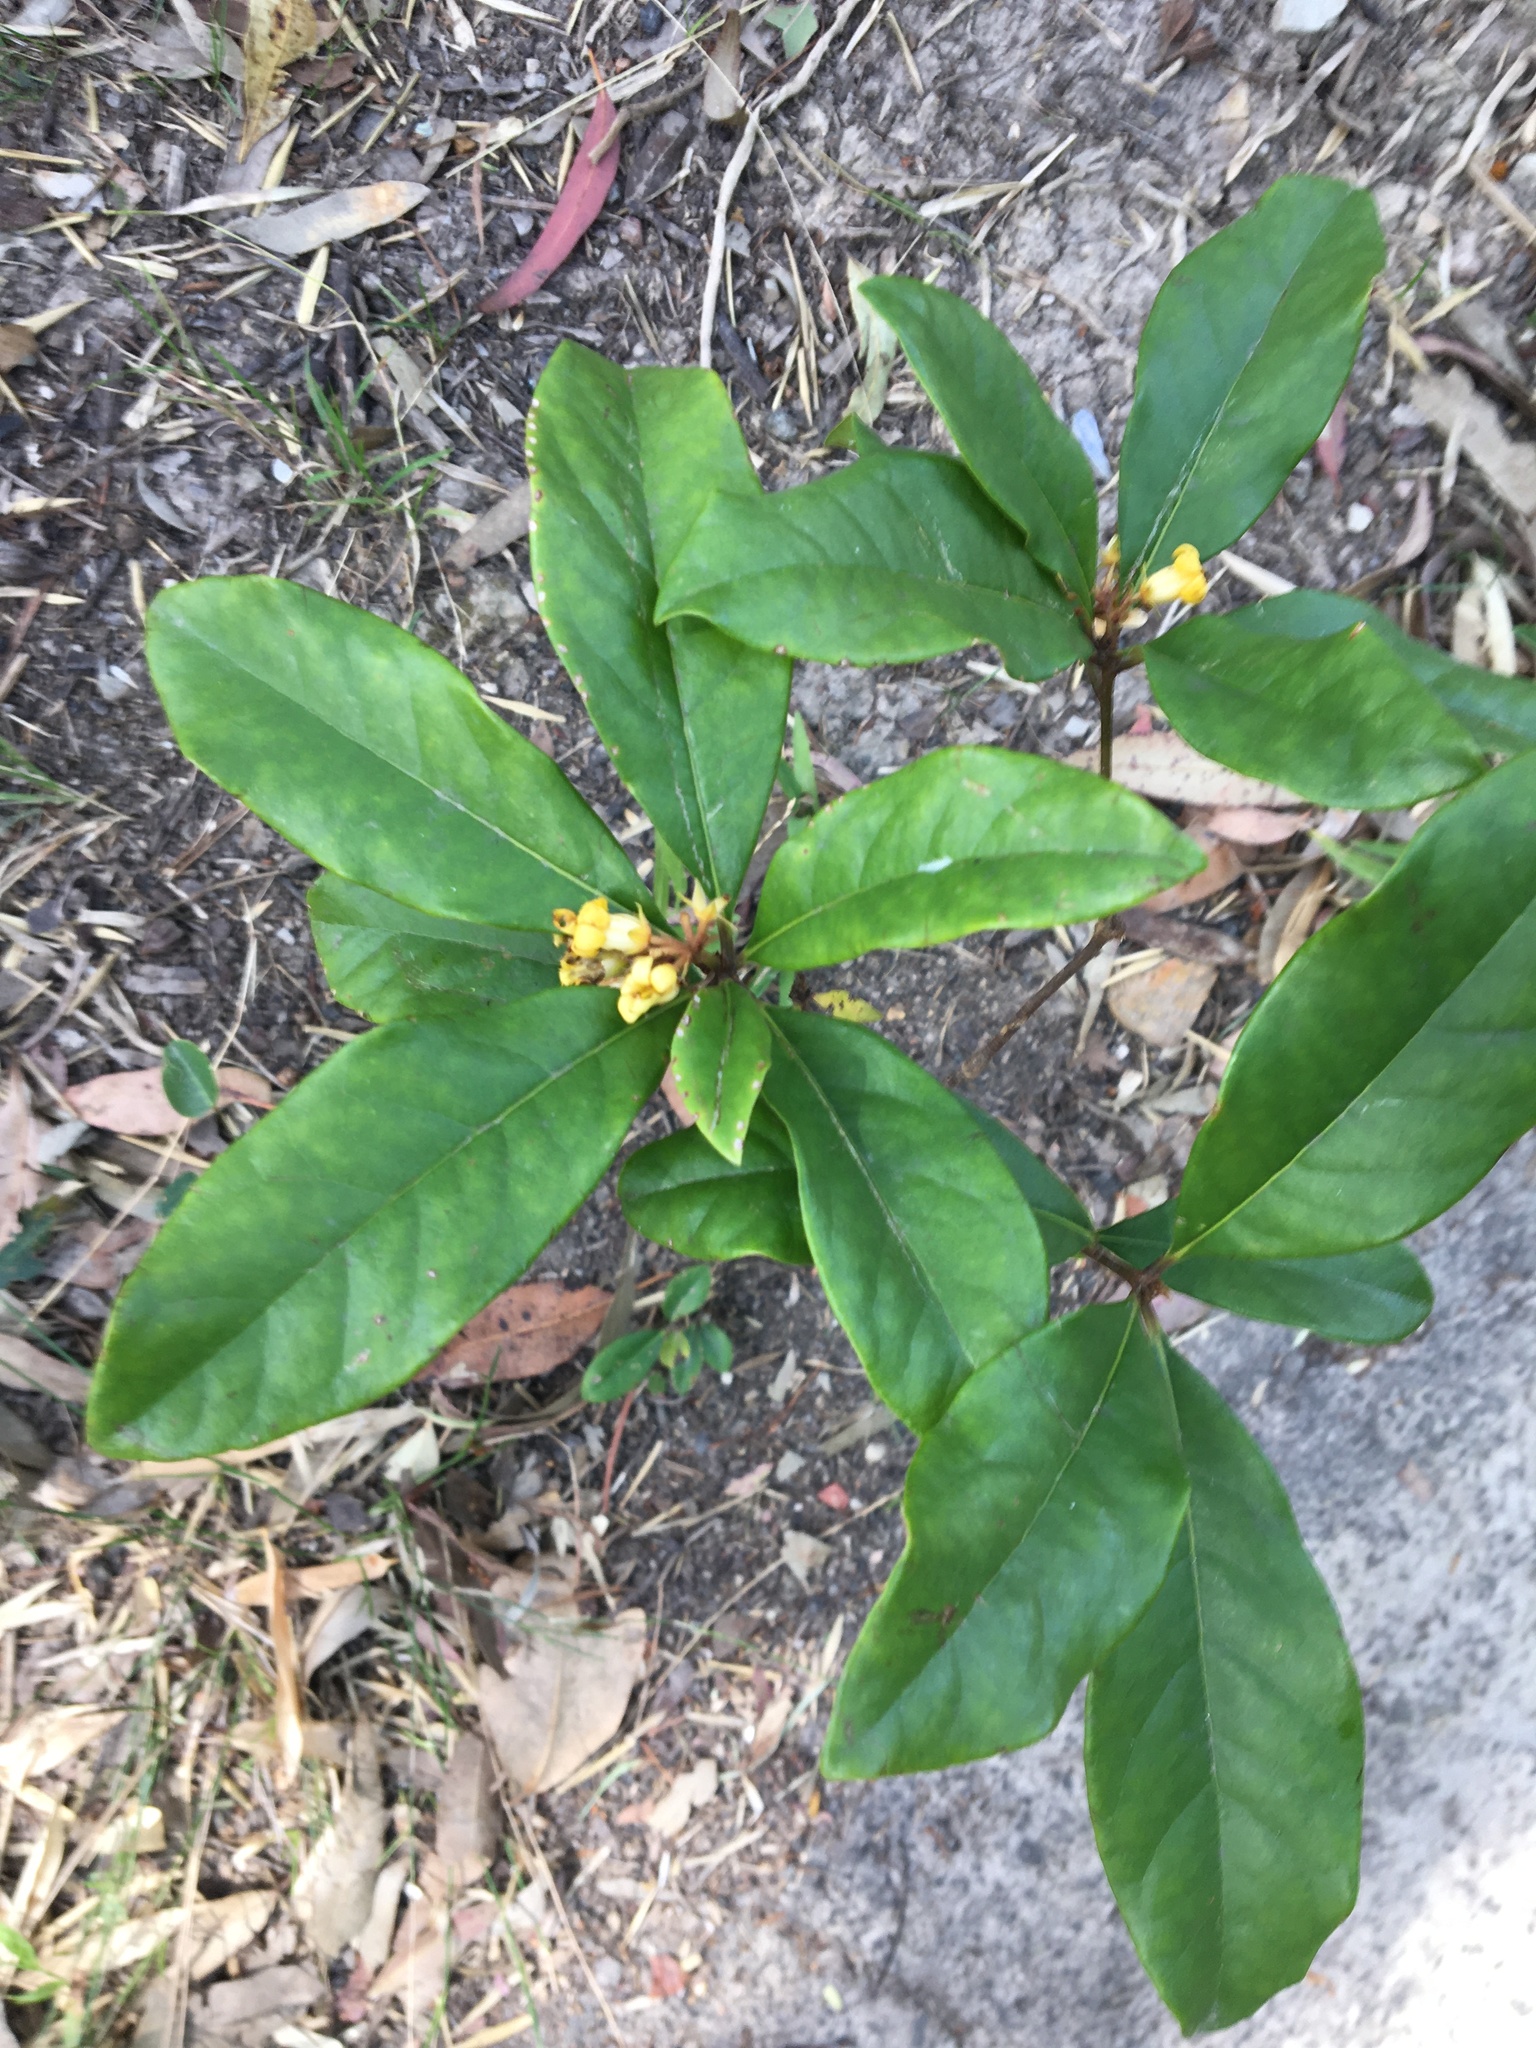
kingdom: Plantae
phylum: Tracheophyta
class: Magnoliopsida
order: Apiales
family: Pittosporaceae
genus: Pittosporum
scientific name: Pittosporum revolutum
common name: Brisbane-laurel
